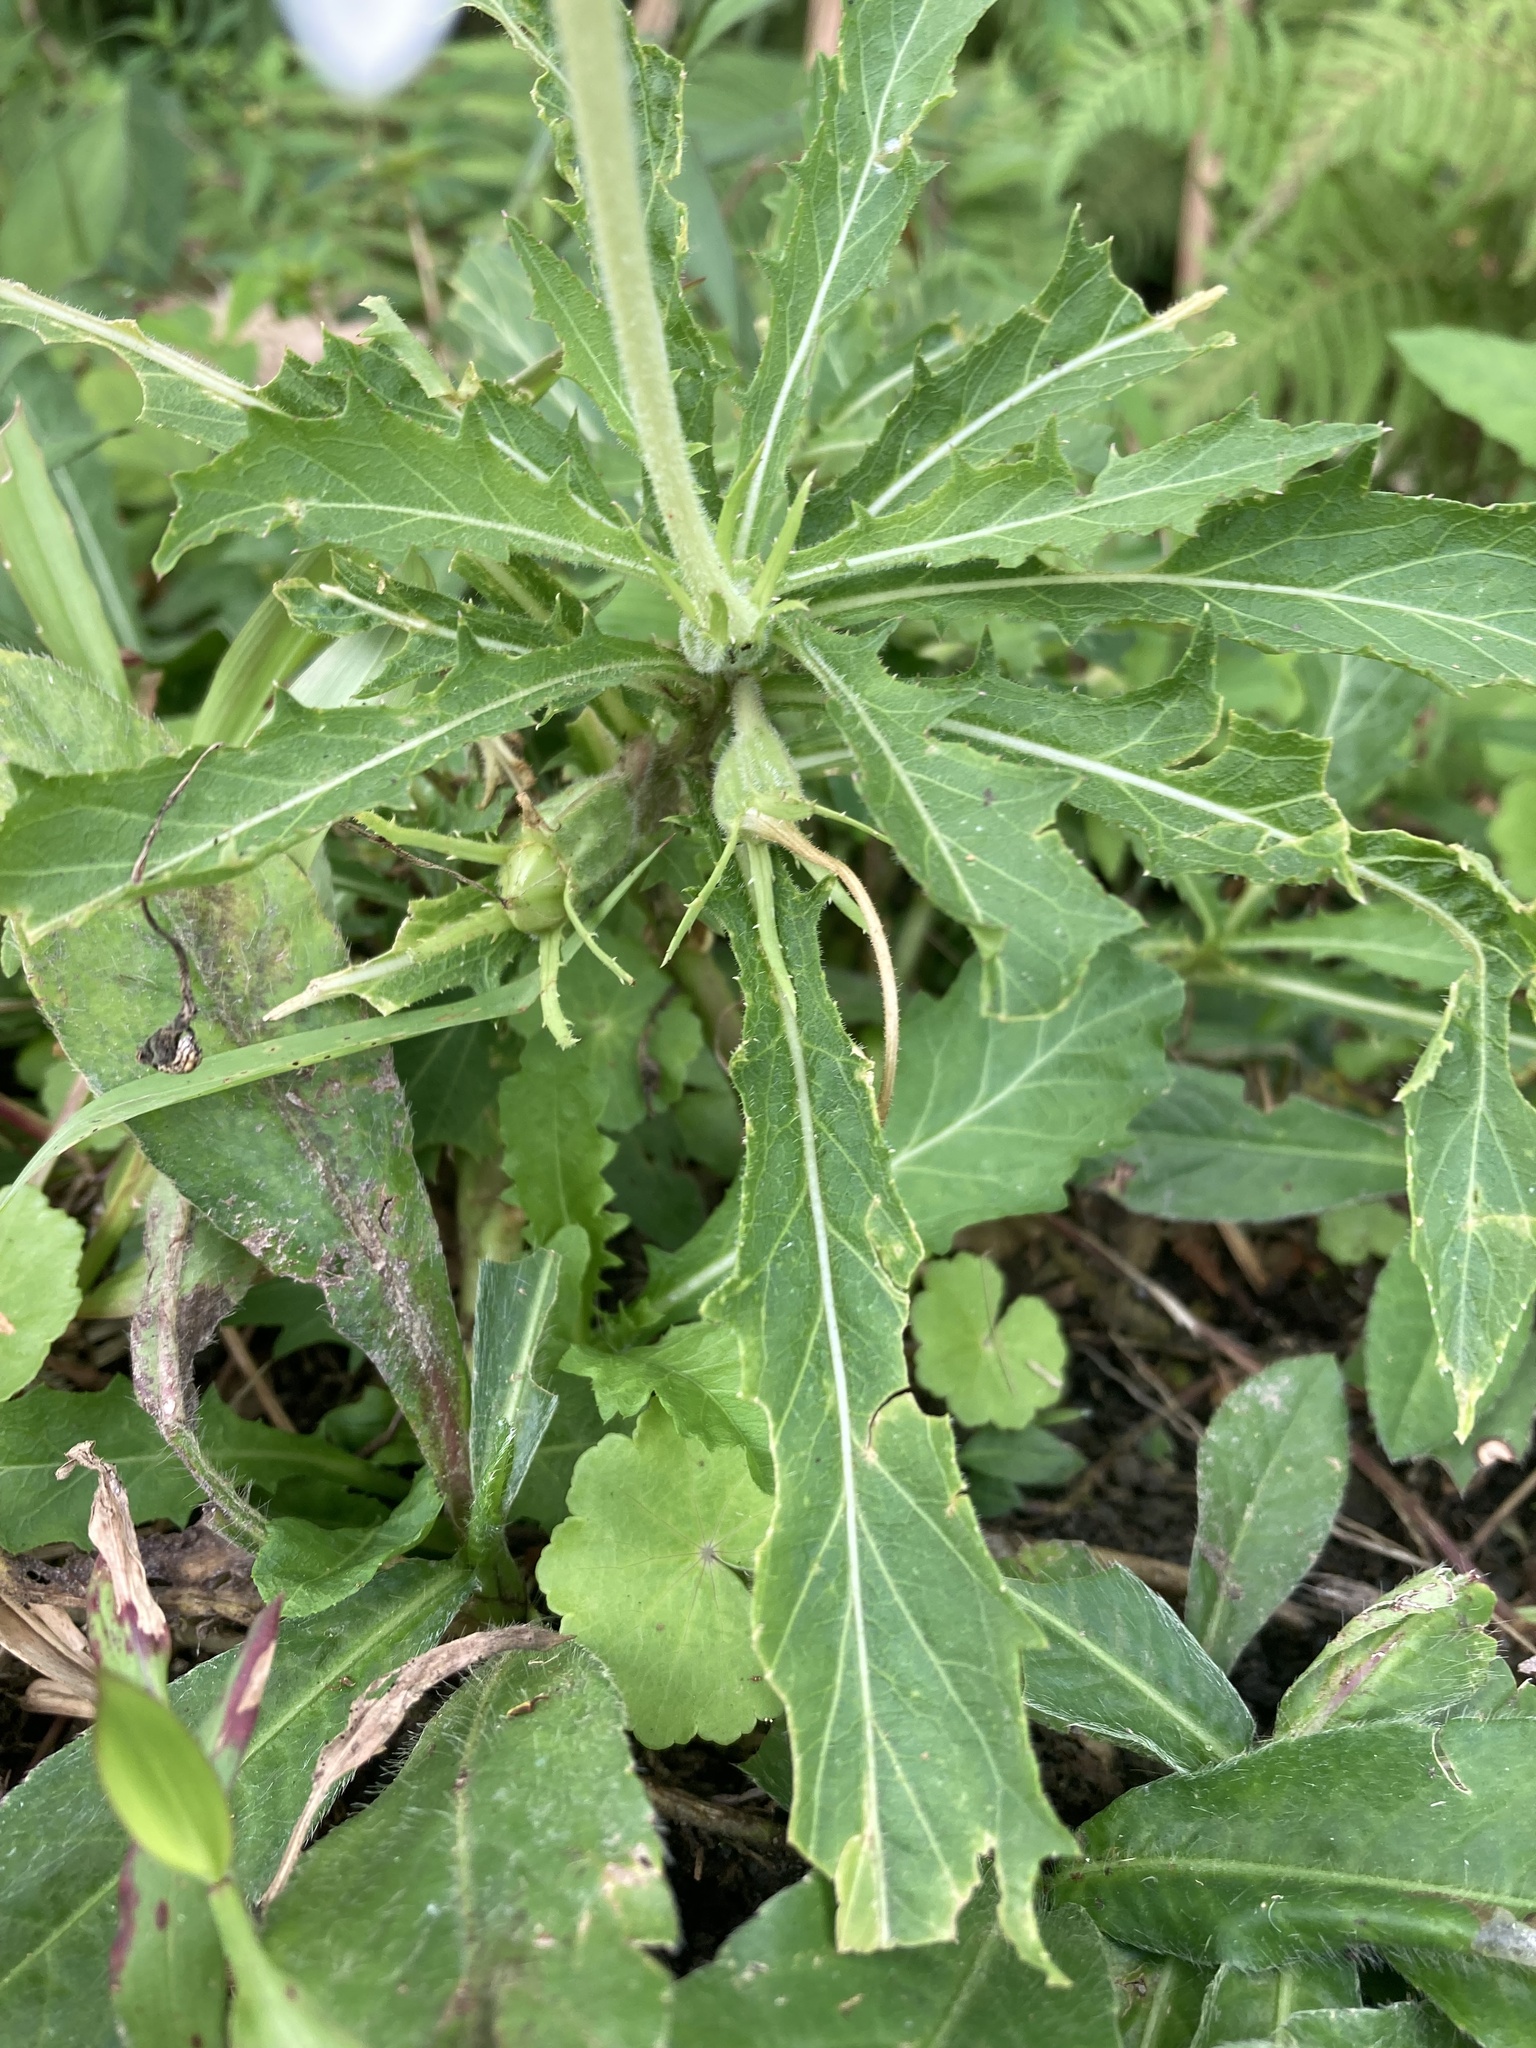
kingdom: Plantae
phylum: Tracheophyta
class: Magnoliopsida
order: Asterales
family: Campanulaceae
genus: Hippobroma
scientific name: Hippobroma longiflora
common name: Madamfate
